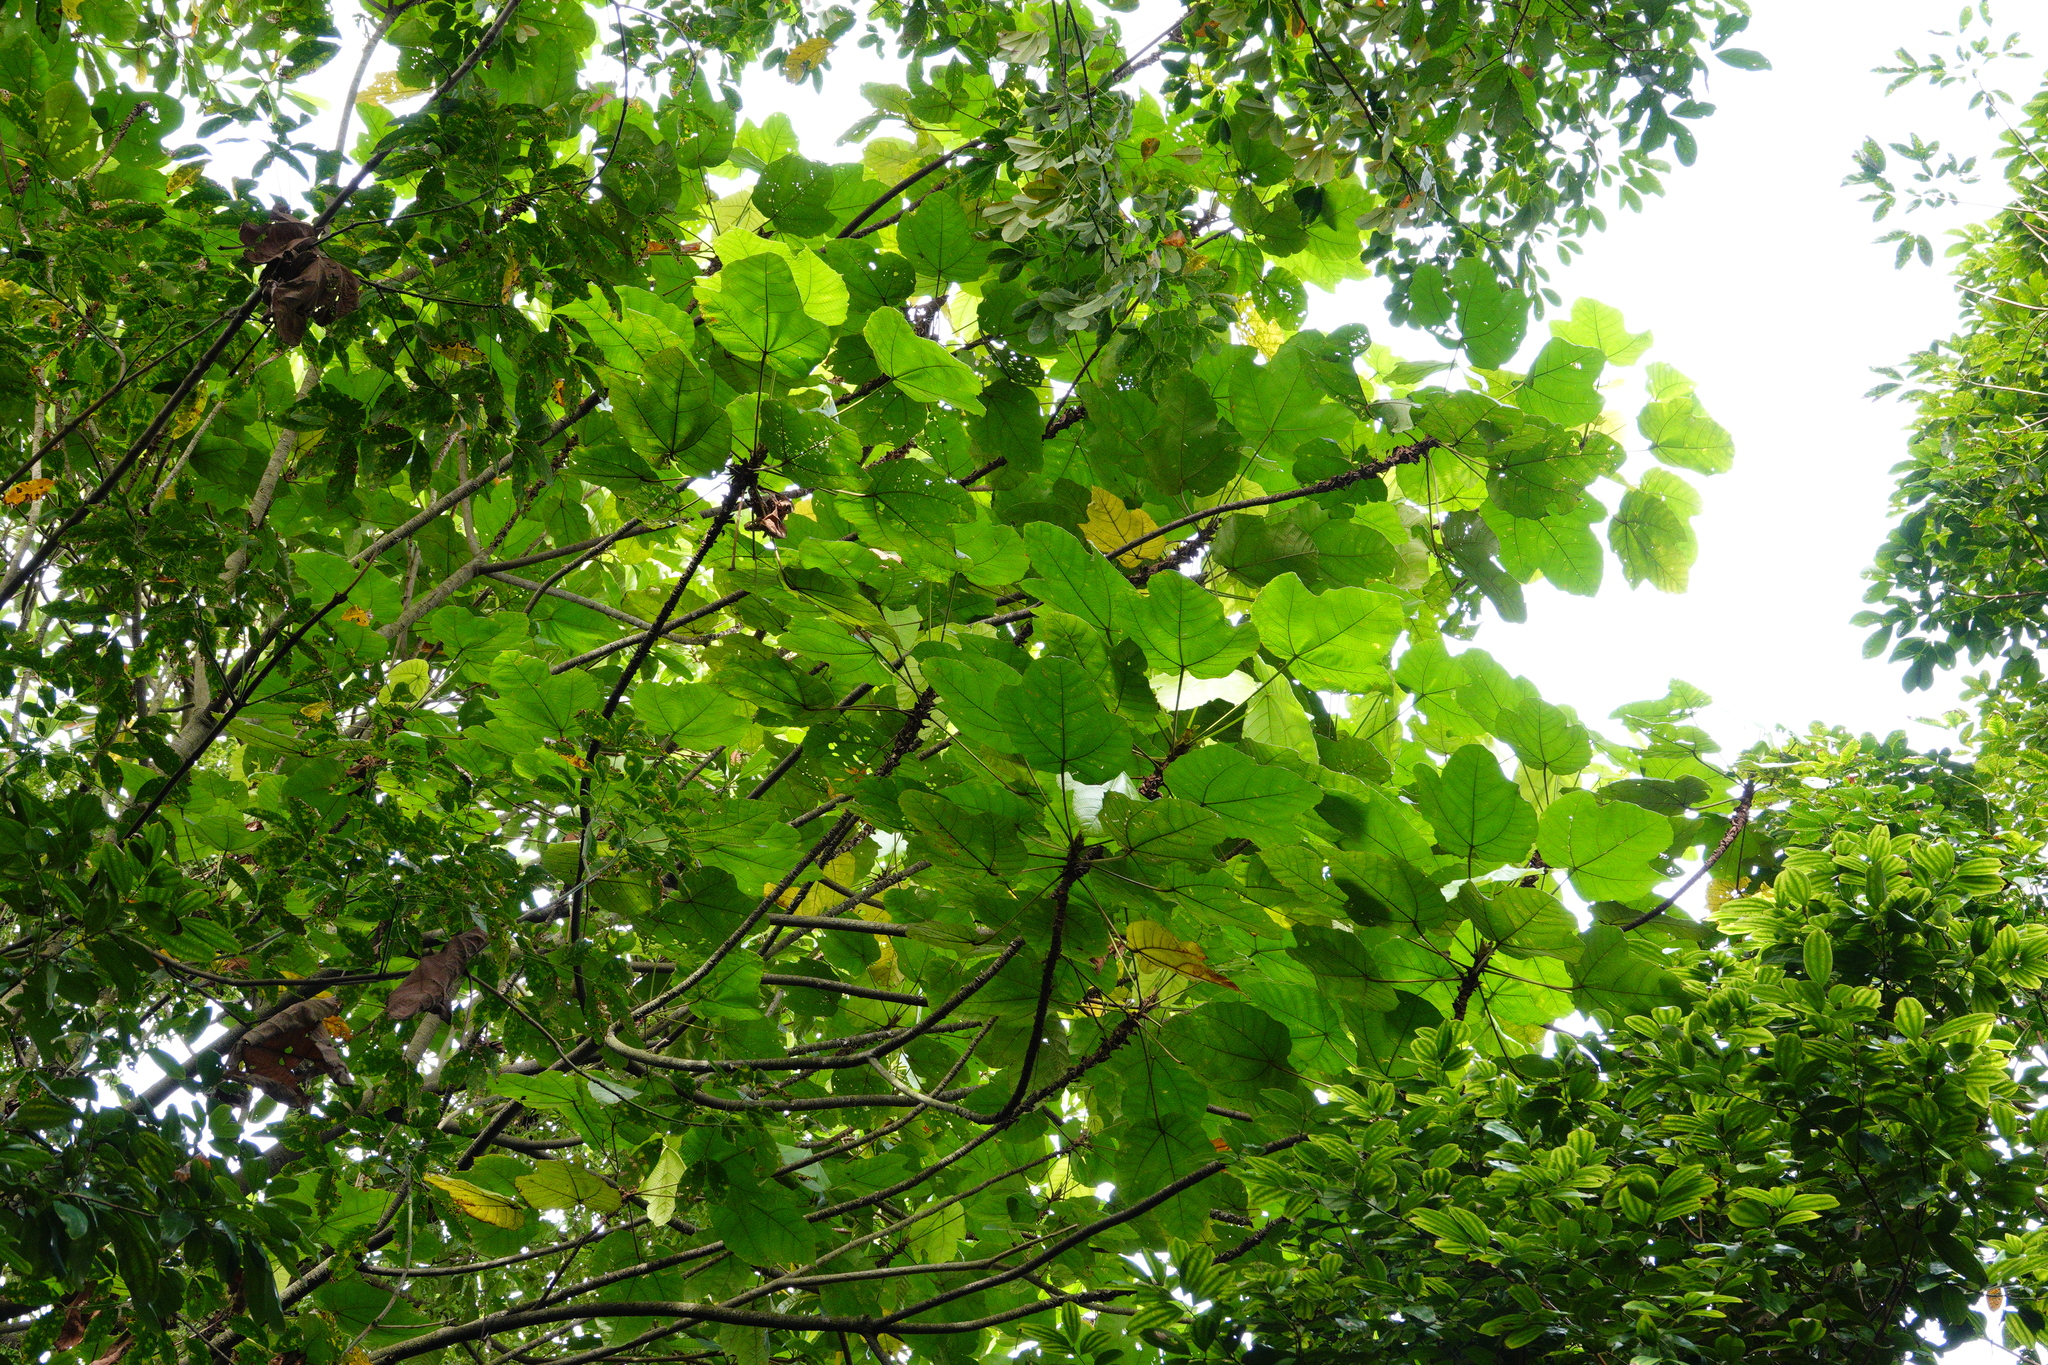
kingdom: Plantae
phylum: Tracheophyta
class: Magnoliopsida
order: Malpighiales
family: Euphorbiaceae
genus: Macaranga
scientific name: Macaranga gigantea
